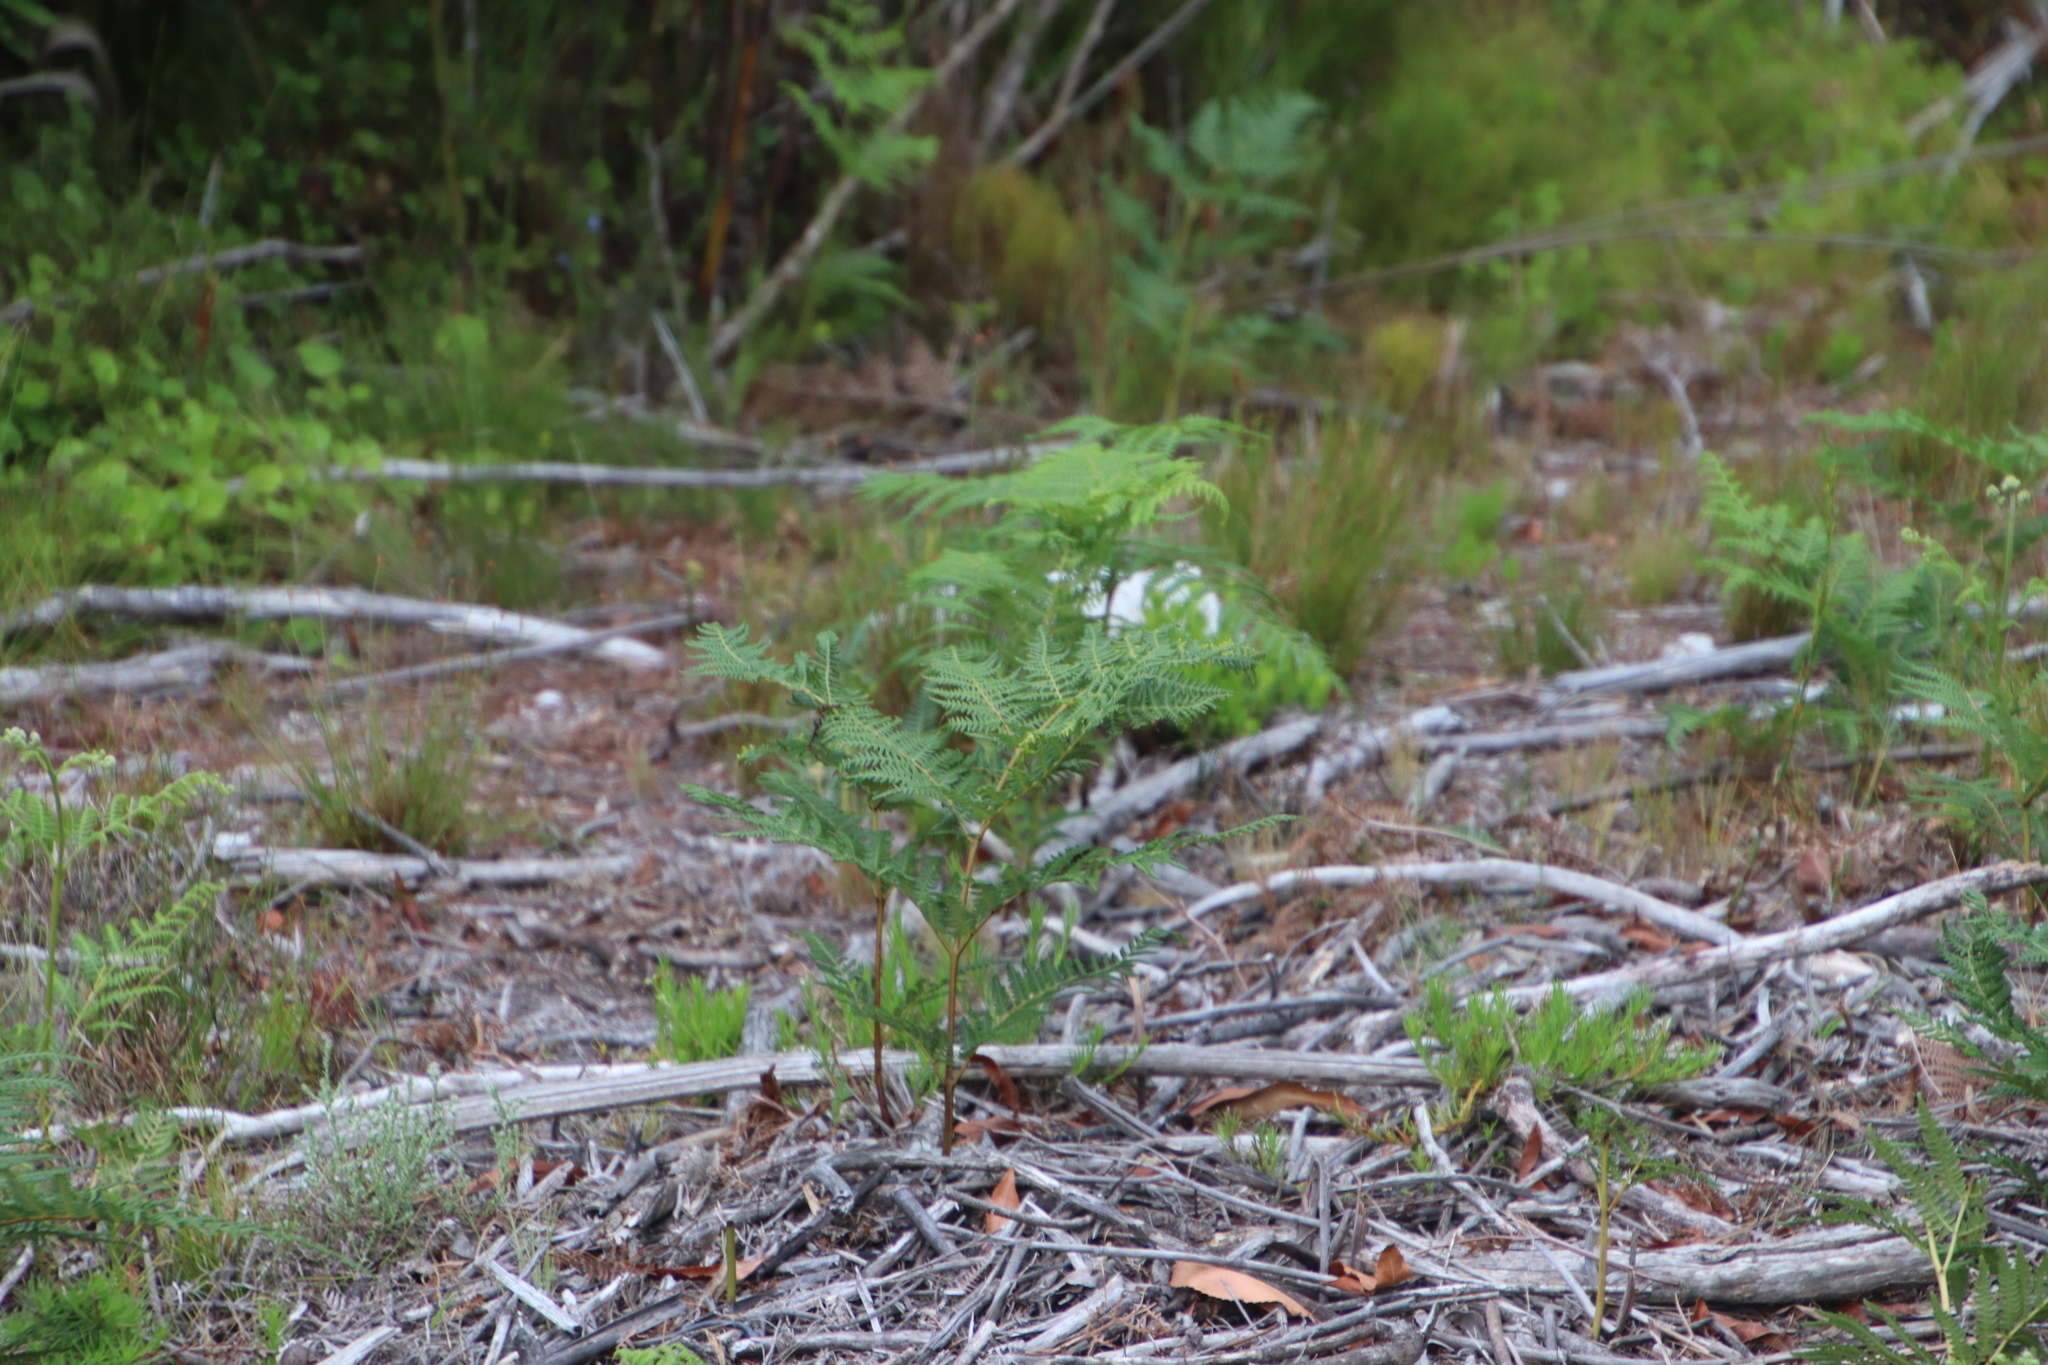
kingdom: Plantae
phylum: Tracheophyta
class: Polypodiopsida
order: Polypodiales
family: Dennstaedtiaceae
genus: Pteridium
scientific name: Pteridium aquilinum
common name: Bracken
